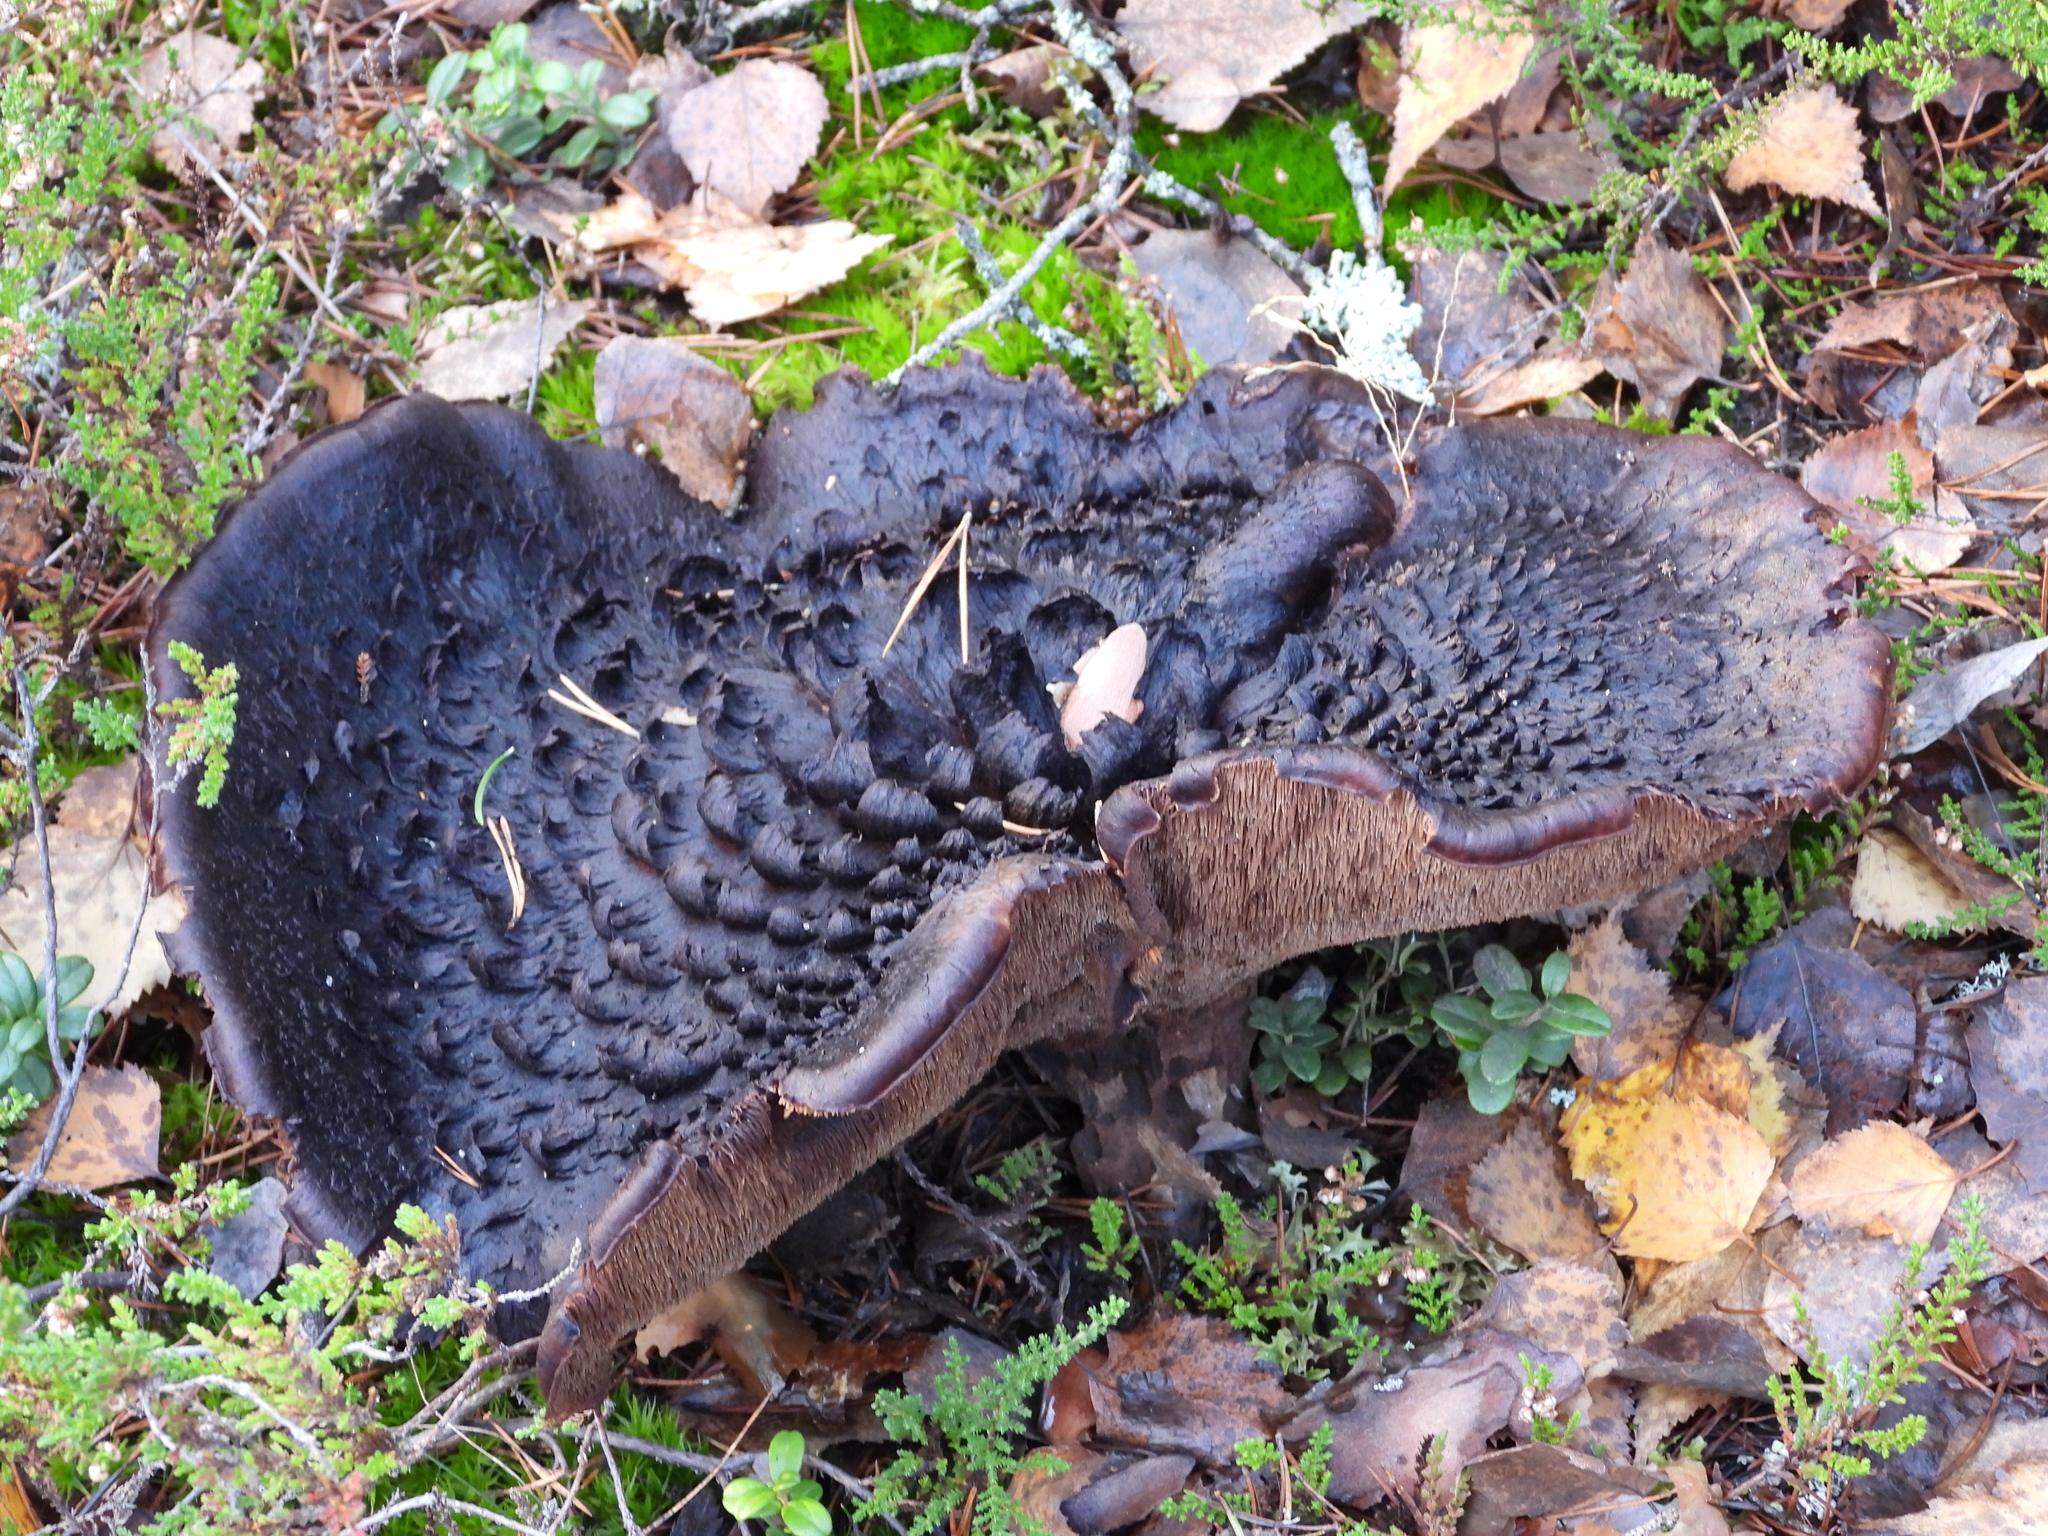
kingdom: Fungi
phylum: Basidiomycota
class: Agaricomycetes
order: Thelephorales
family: Bankeraceae
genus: Sarcodon
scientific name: Sarcodon squamosus
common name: Scaly tooth
